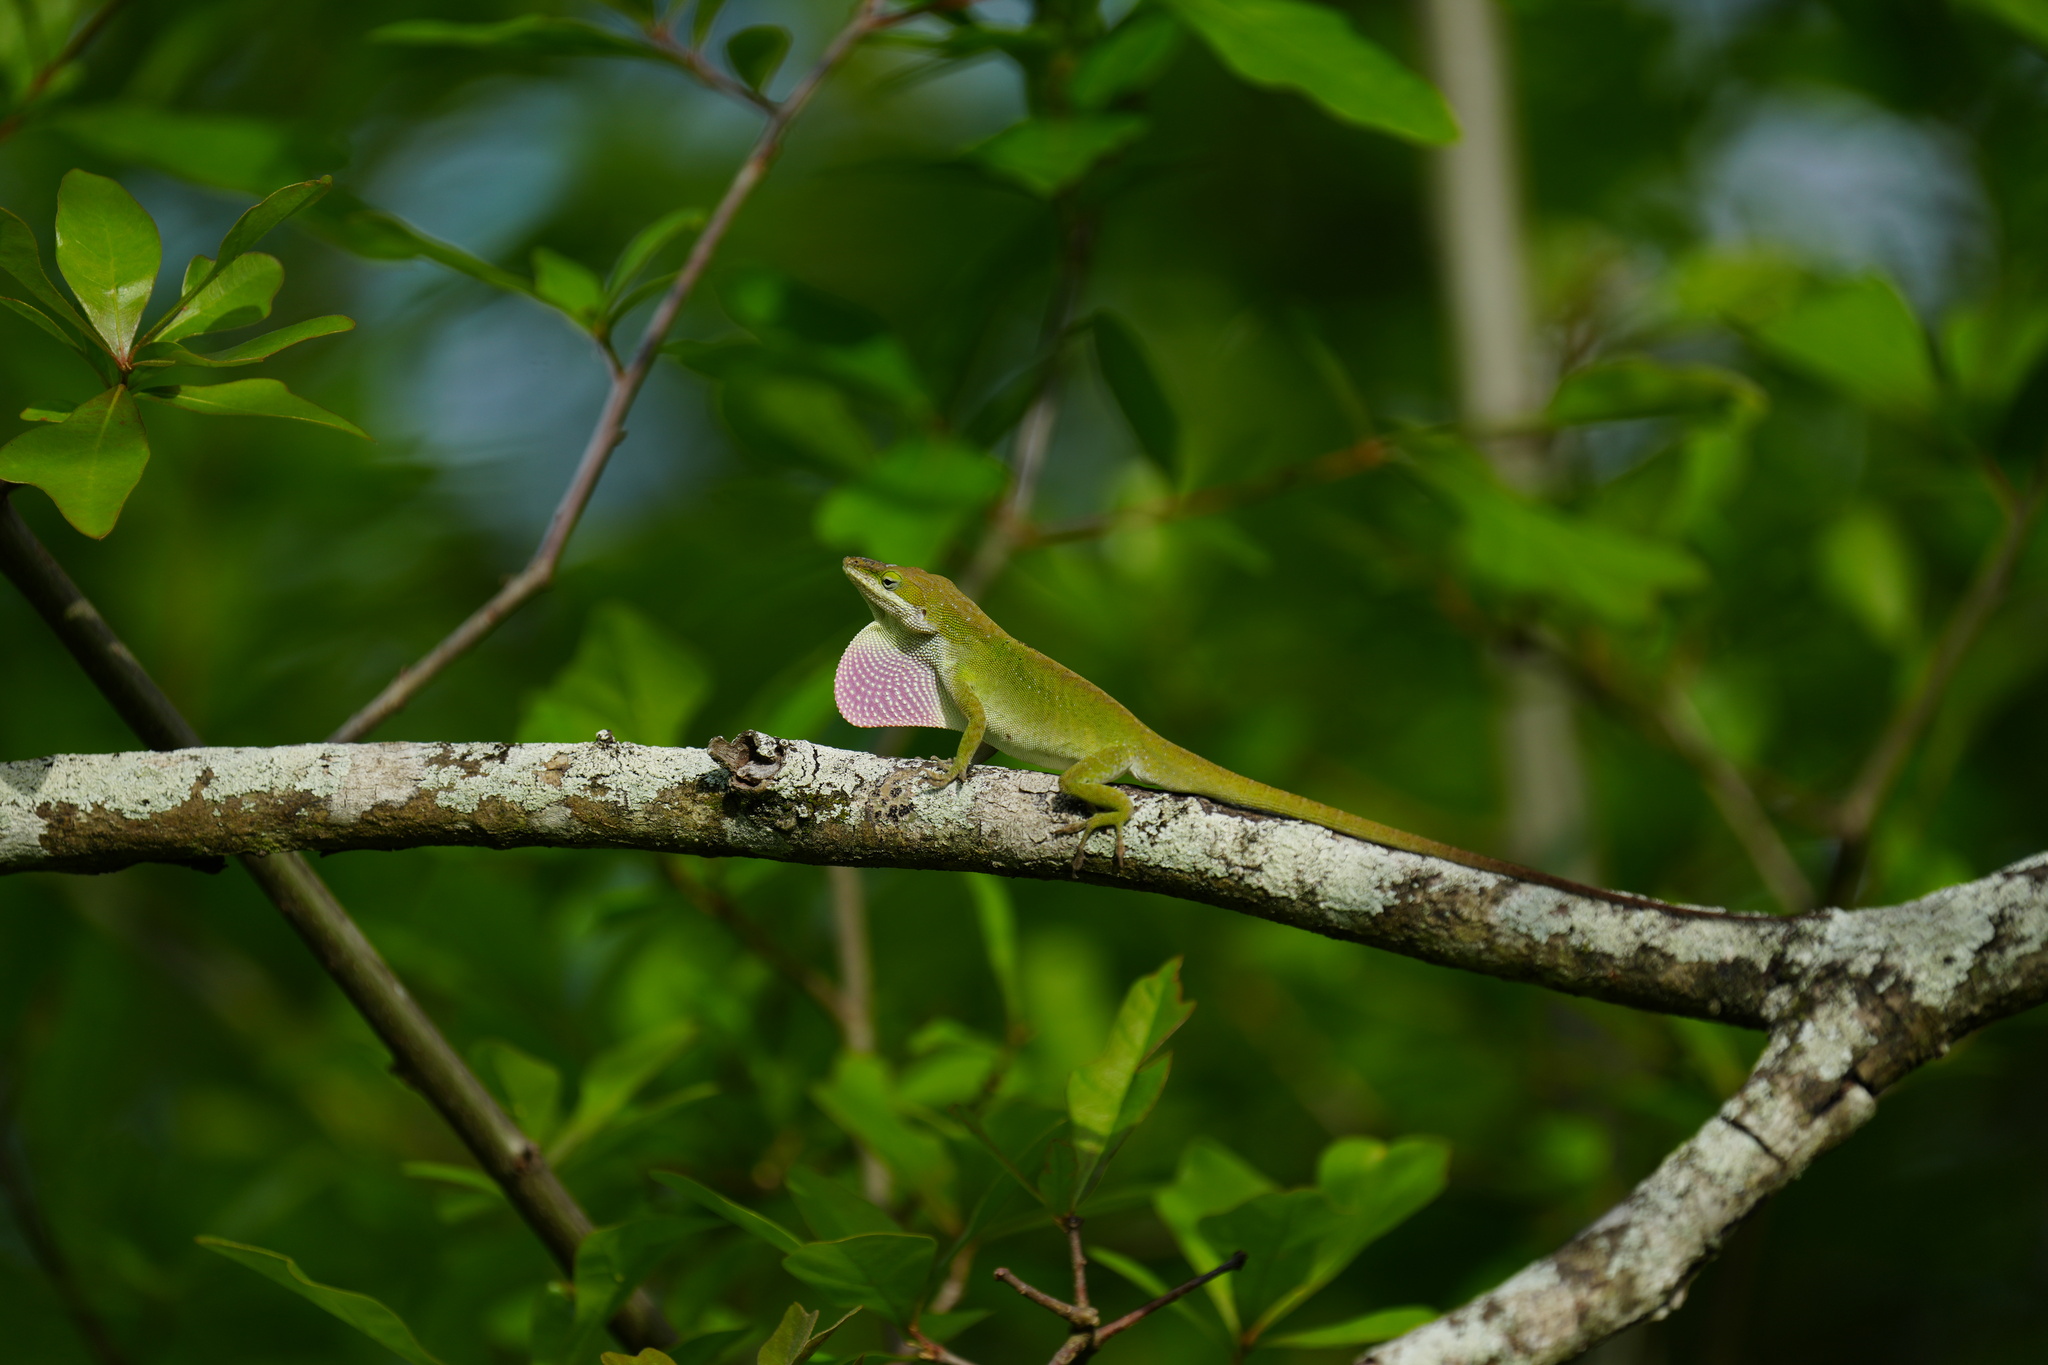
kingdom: Animalia
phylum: Chordata
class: Squamata
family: Dactyloidae
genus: Anolis
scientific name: Anolis carolinensis
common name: Green anole
